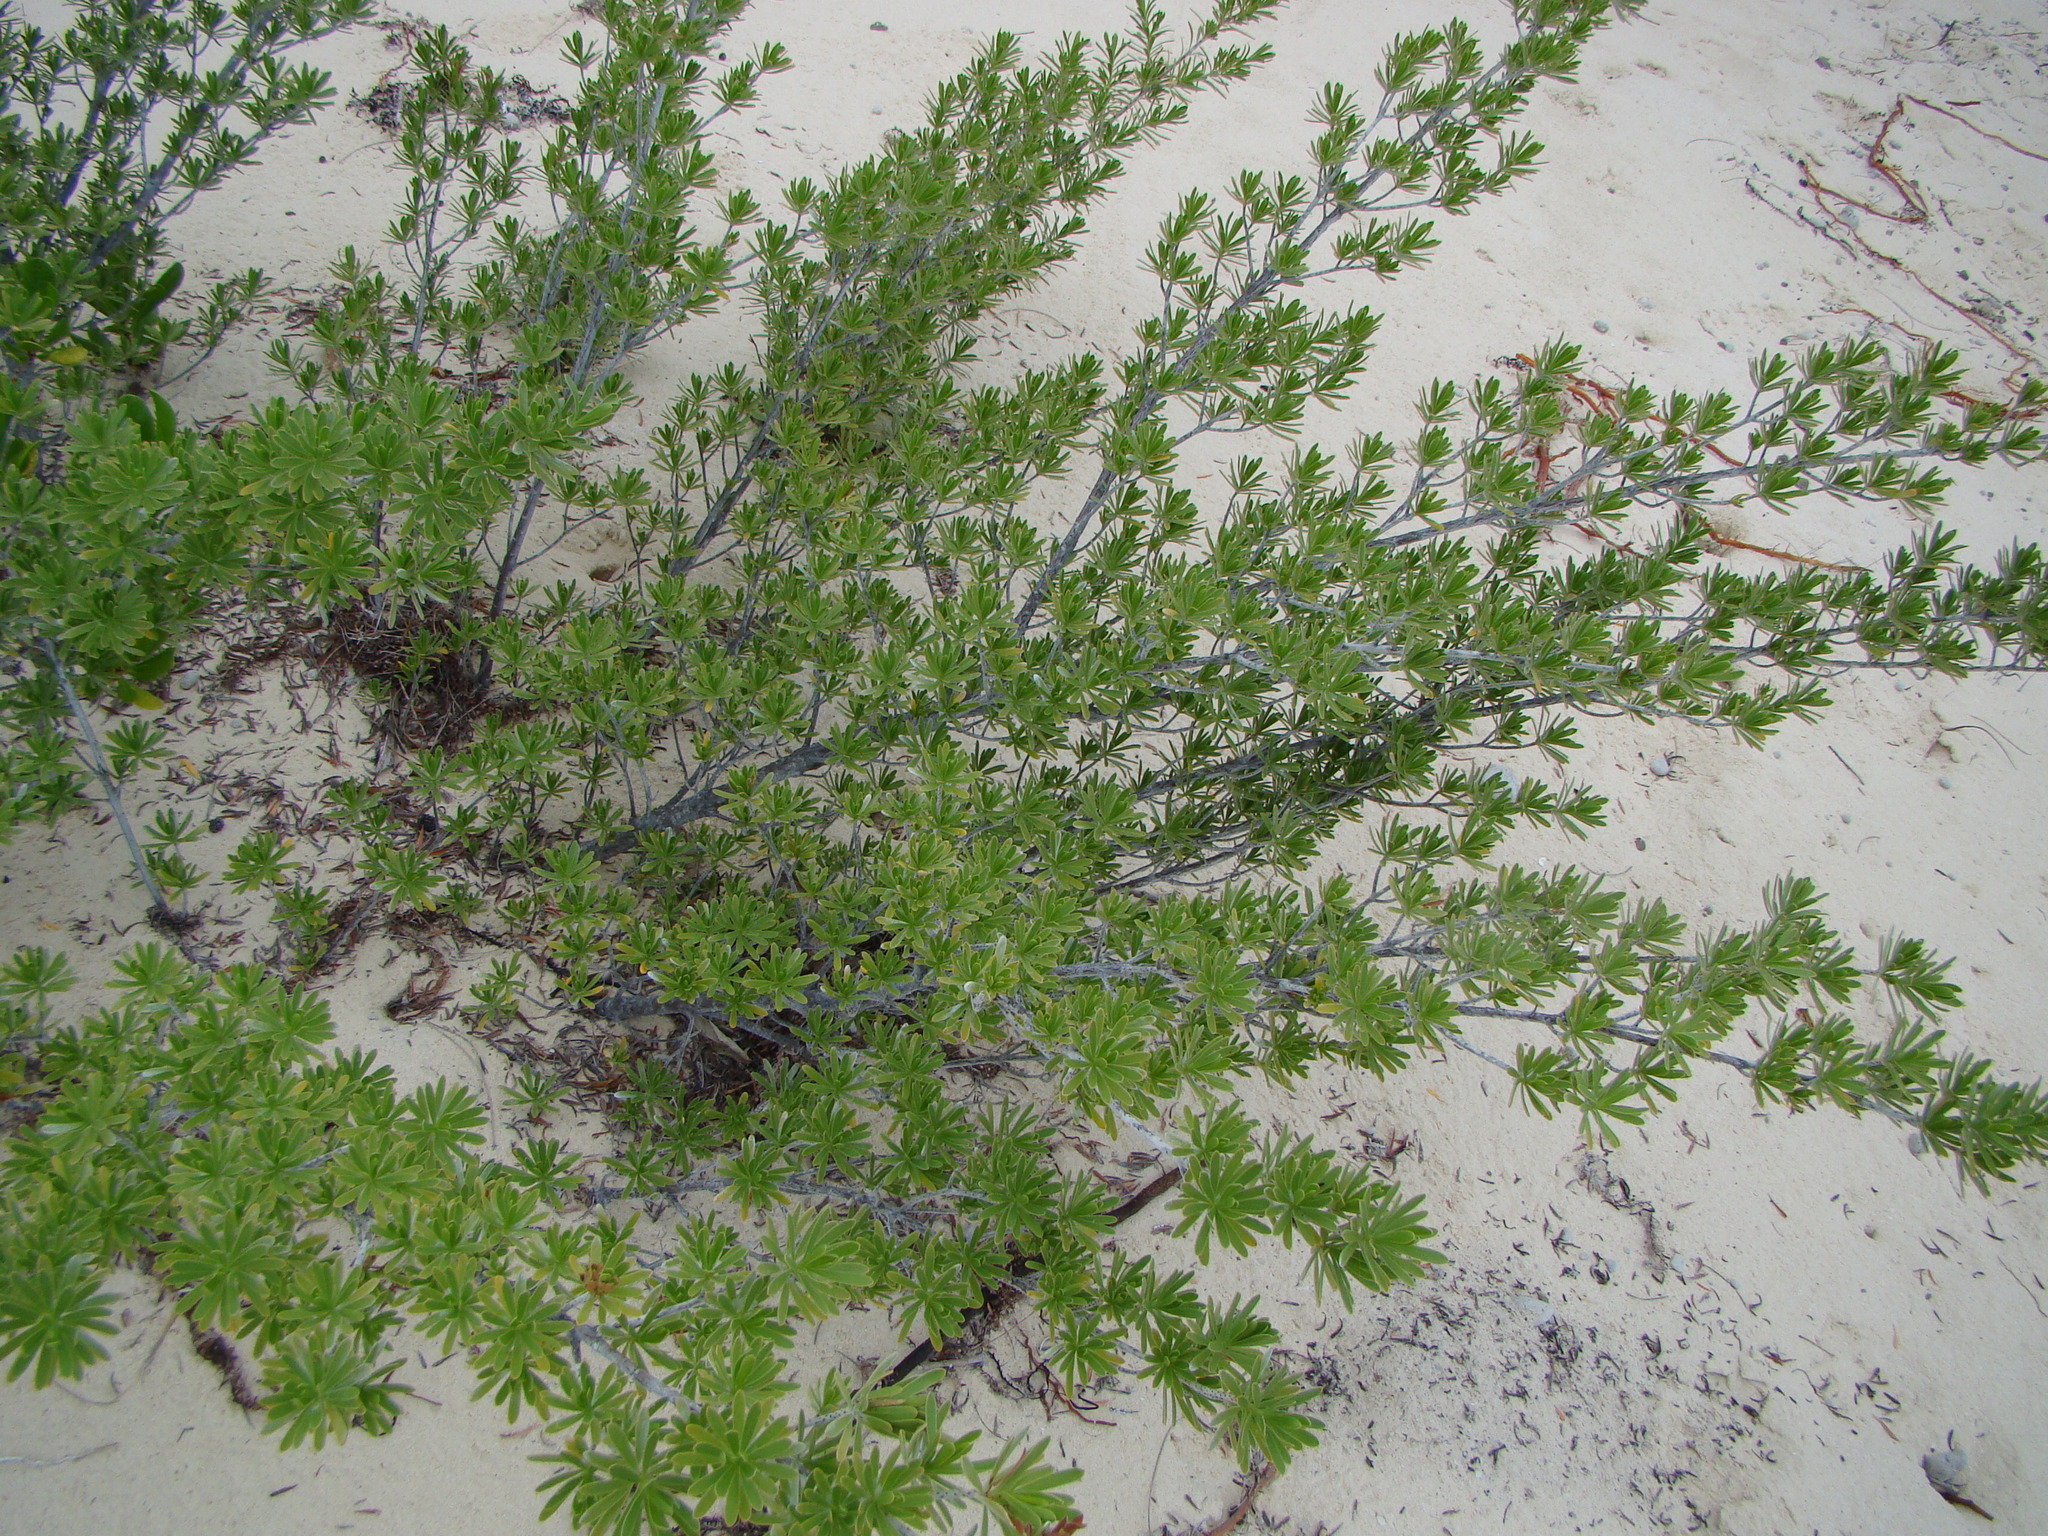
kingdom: Plantae
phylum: Tracheophyta
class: Magnoliopsida
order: Fabales
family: Surianaceae
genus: Suriana
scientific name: Suriana maritima
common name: Bay-cedar
